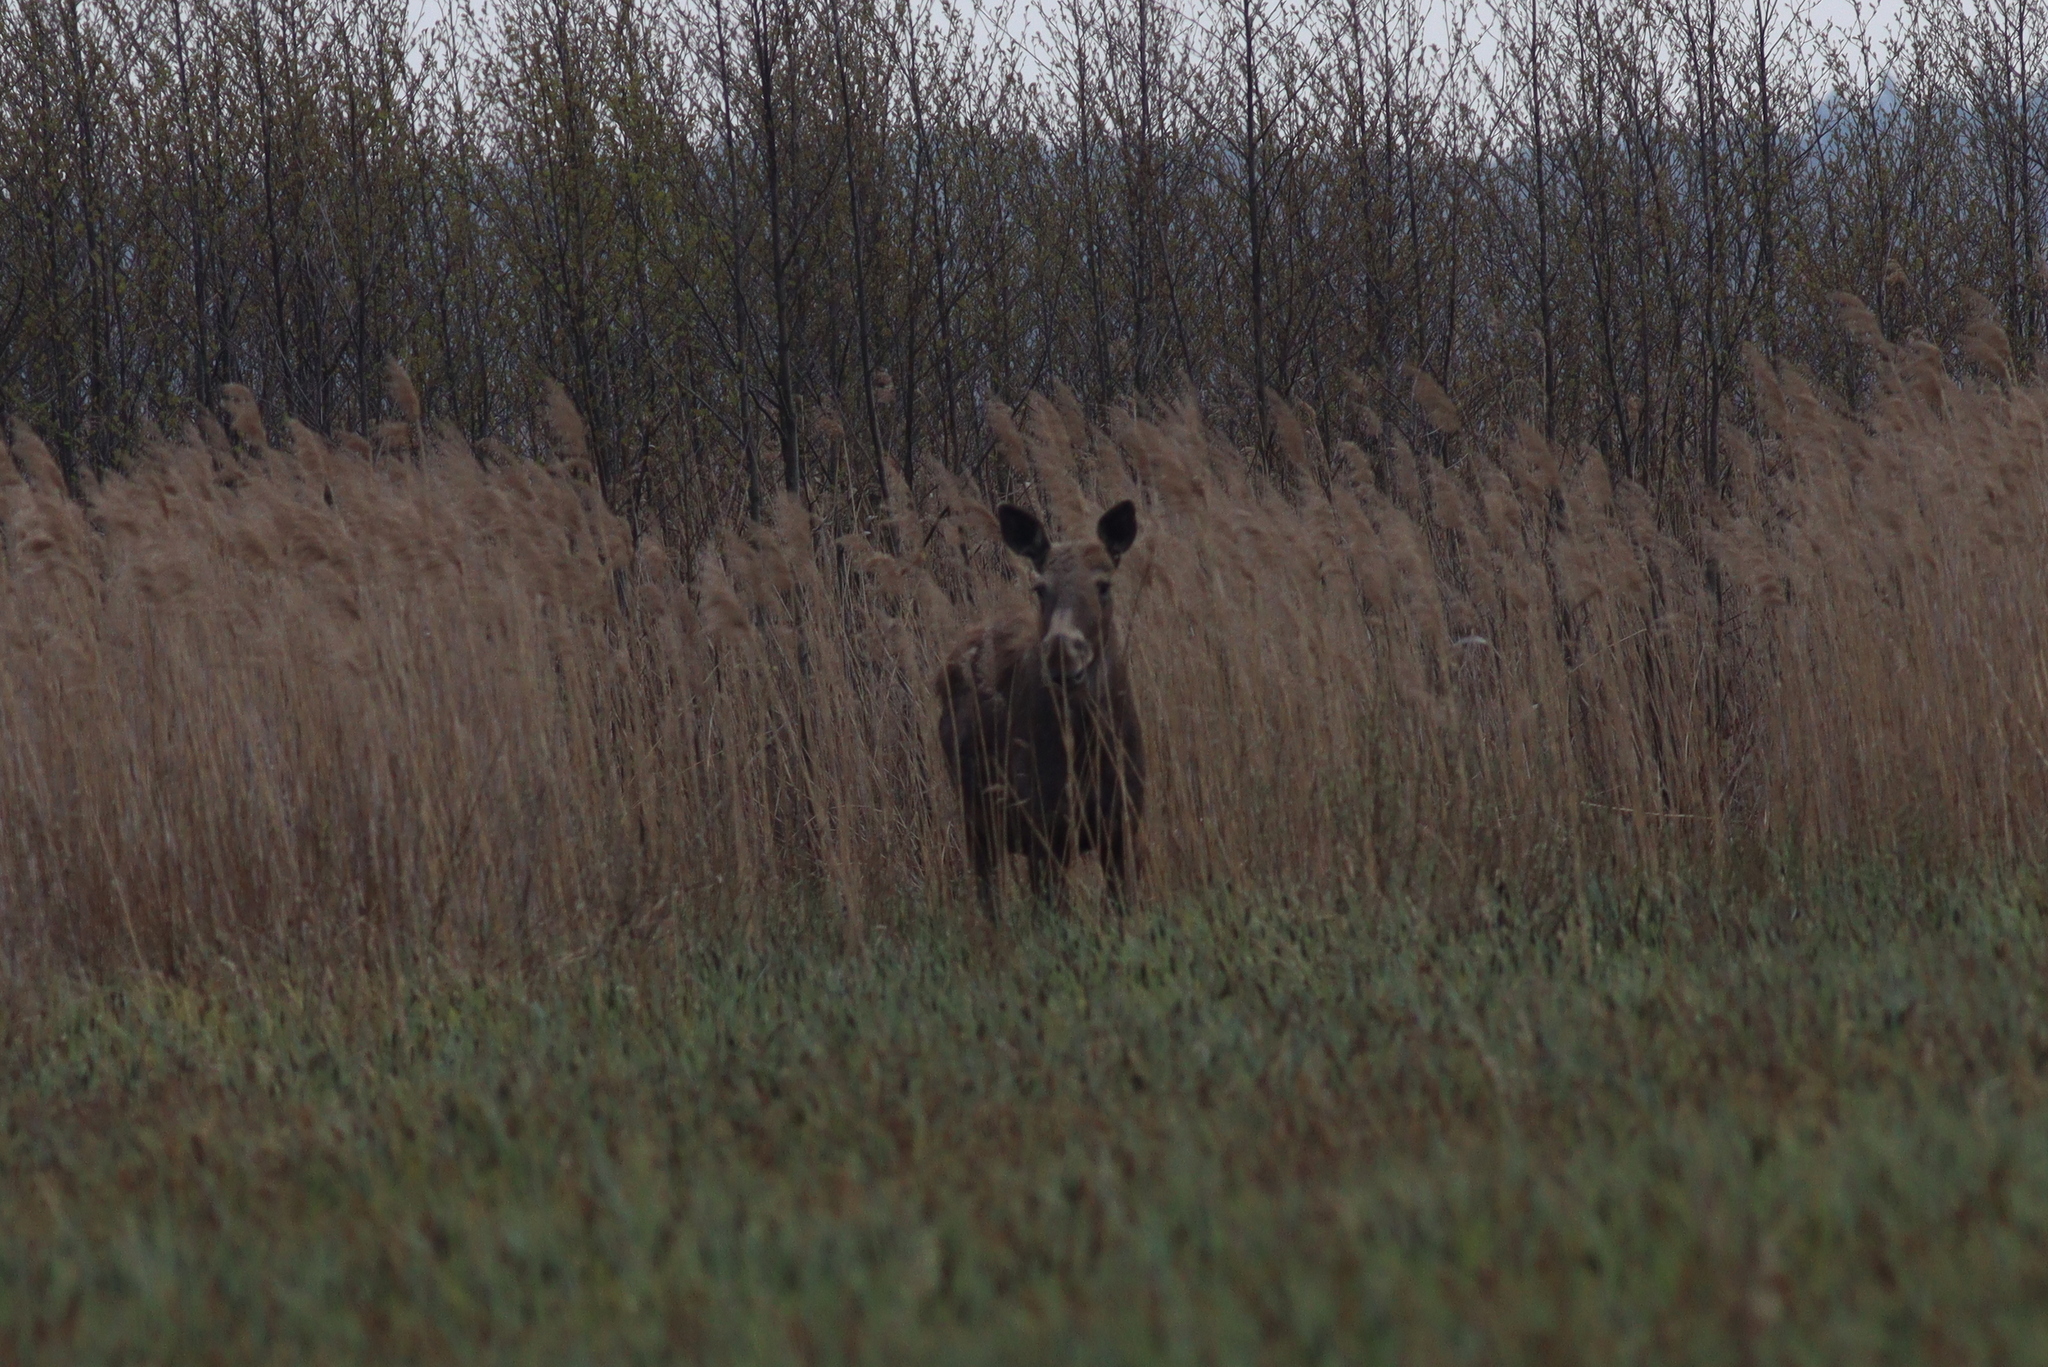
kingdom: Animalia
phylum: Chordata
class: Mammalia
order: Artiodactyla
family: Cervidae
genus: Alces
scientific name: Alces alces
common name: Moose
